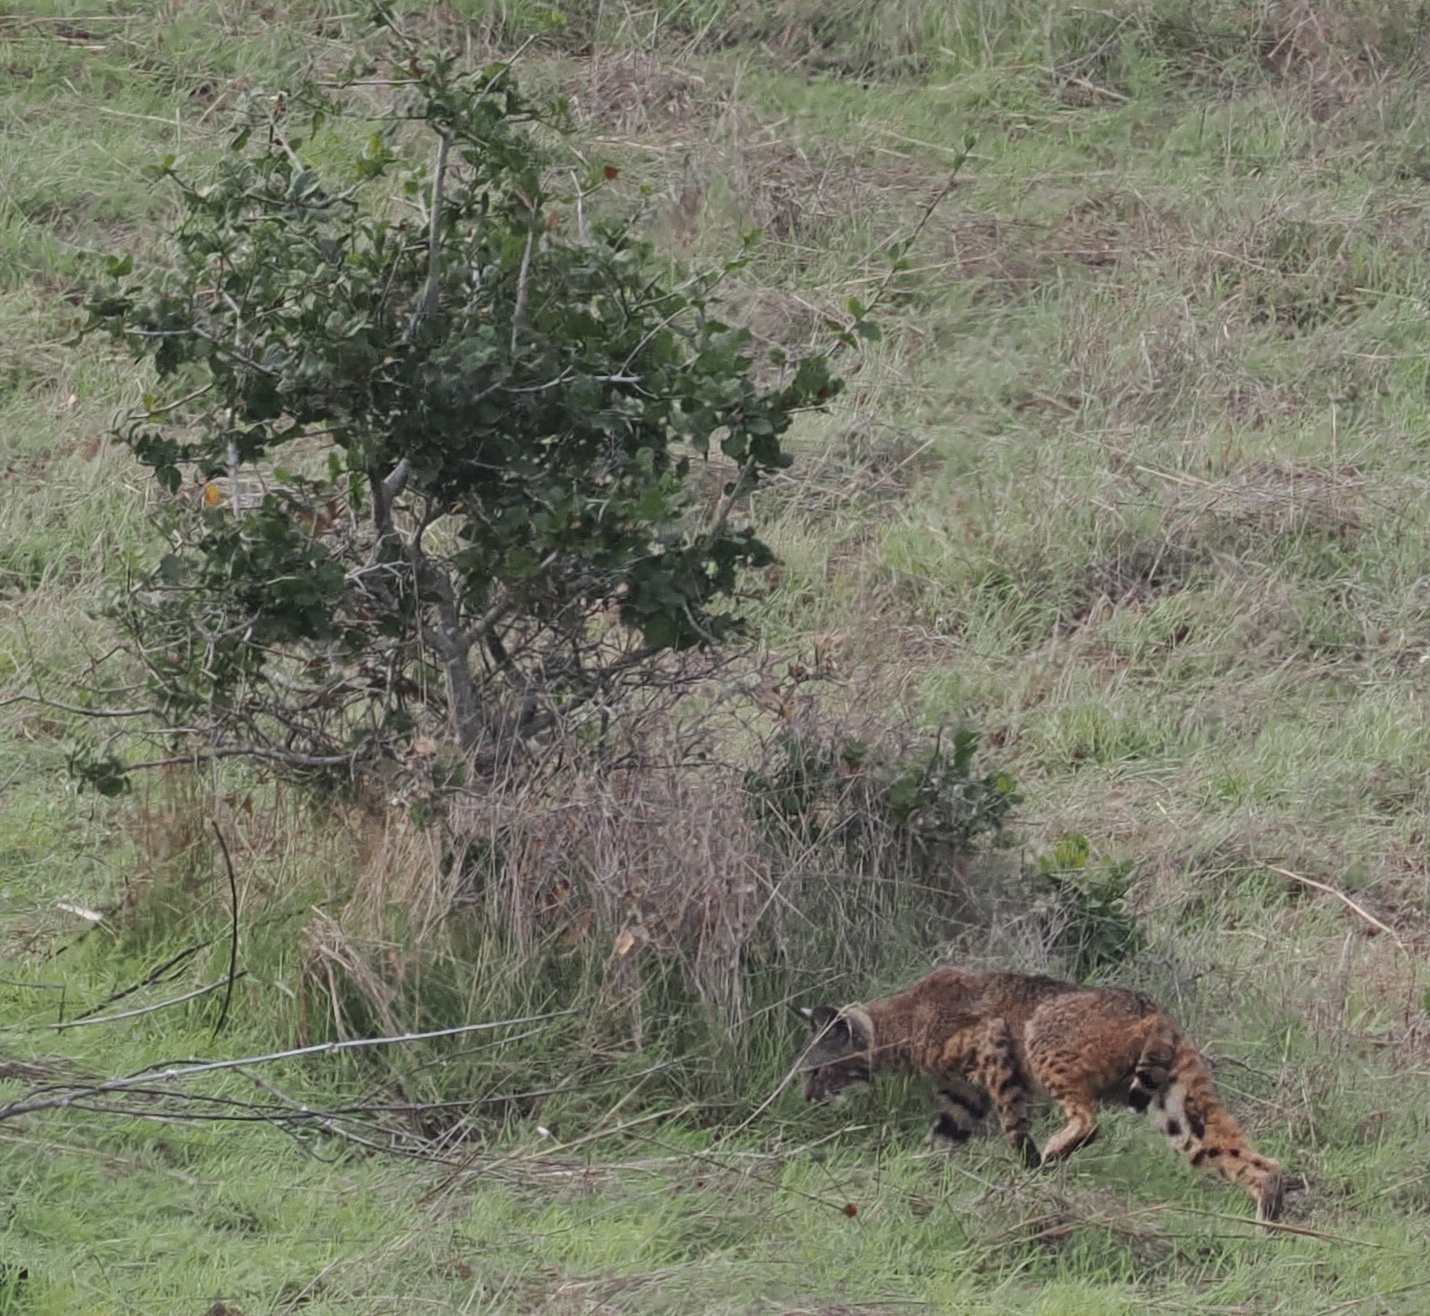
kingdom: Animalia
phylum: Chordata
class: Mammalia
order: Carnivora
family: Felidae
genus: Lynx
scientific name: Lynx rufus
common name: Bobcat
